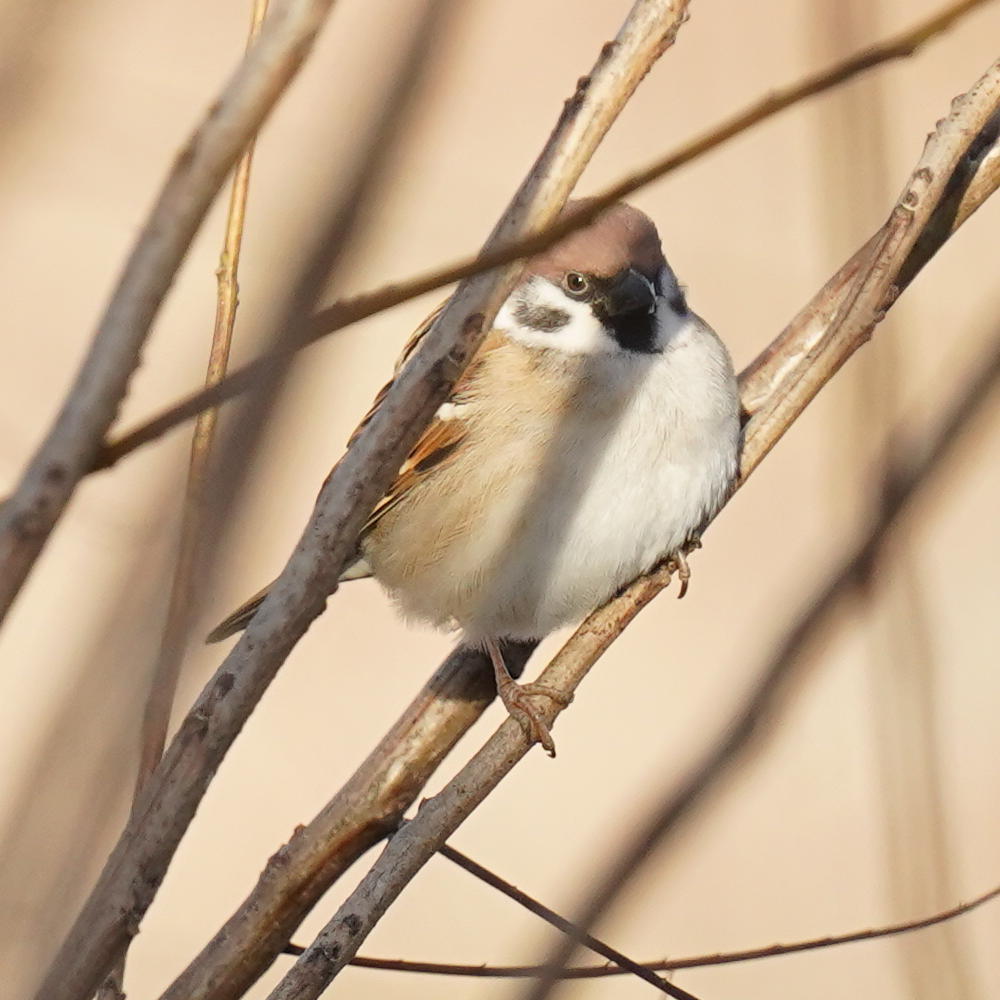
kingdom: Animalia
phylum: Chordata
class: Aves
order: Passeriformes
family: Passeridae
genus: Passer
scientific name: Passer montanus
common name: Eurasian tree sparrow
